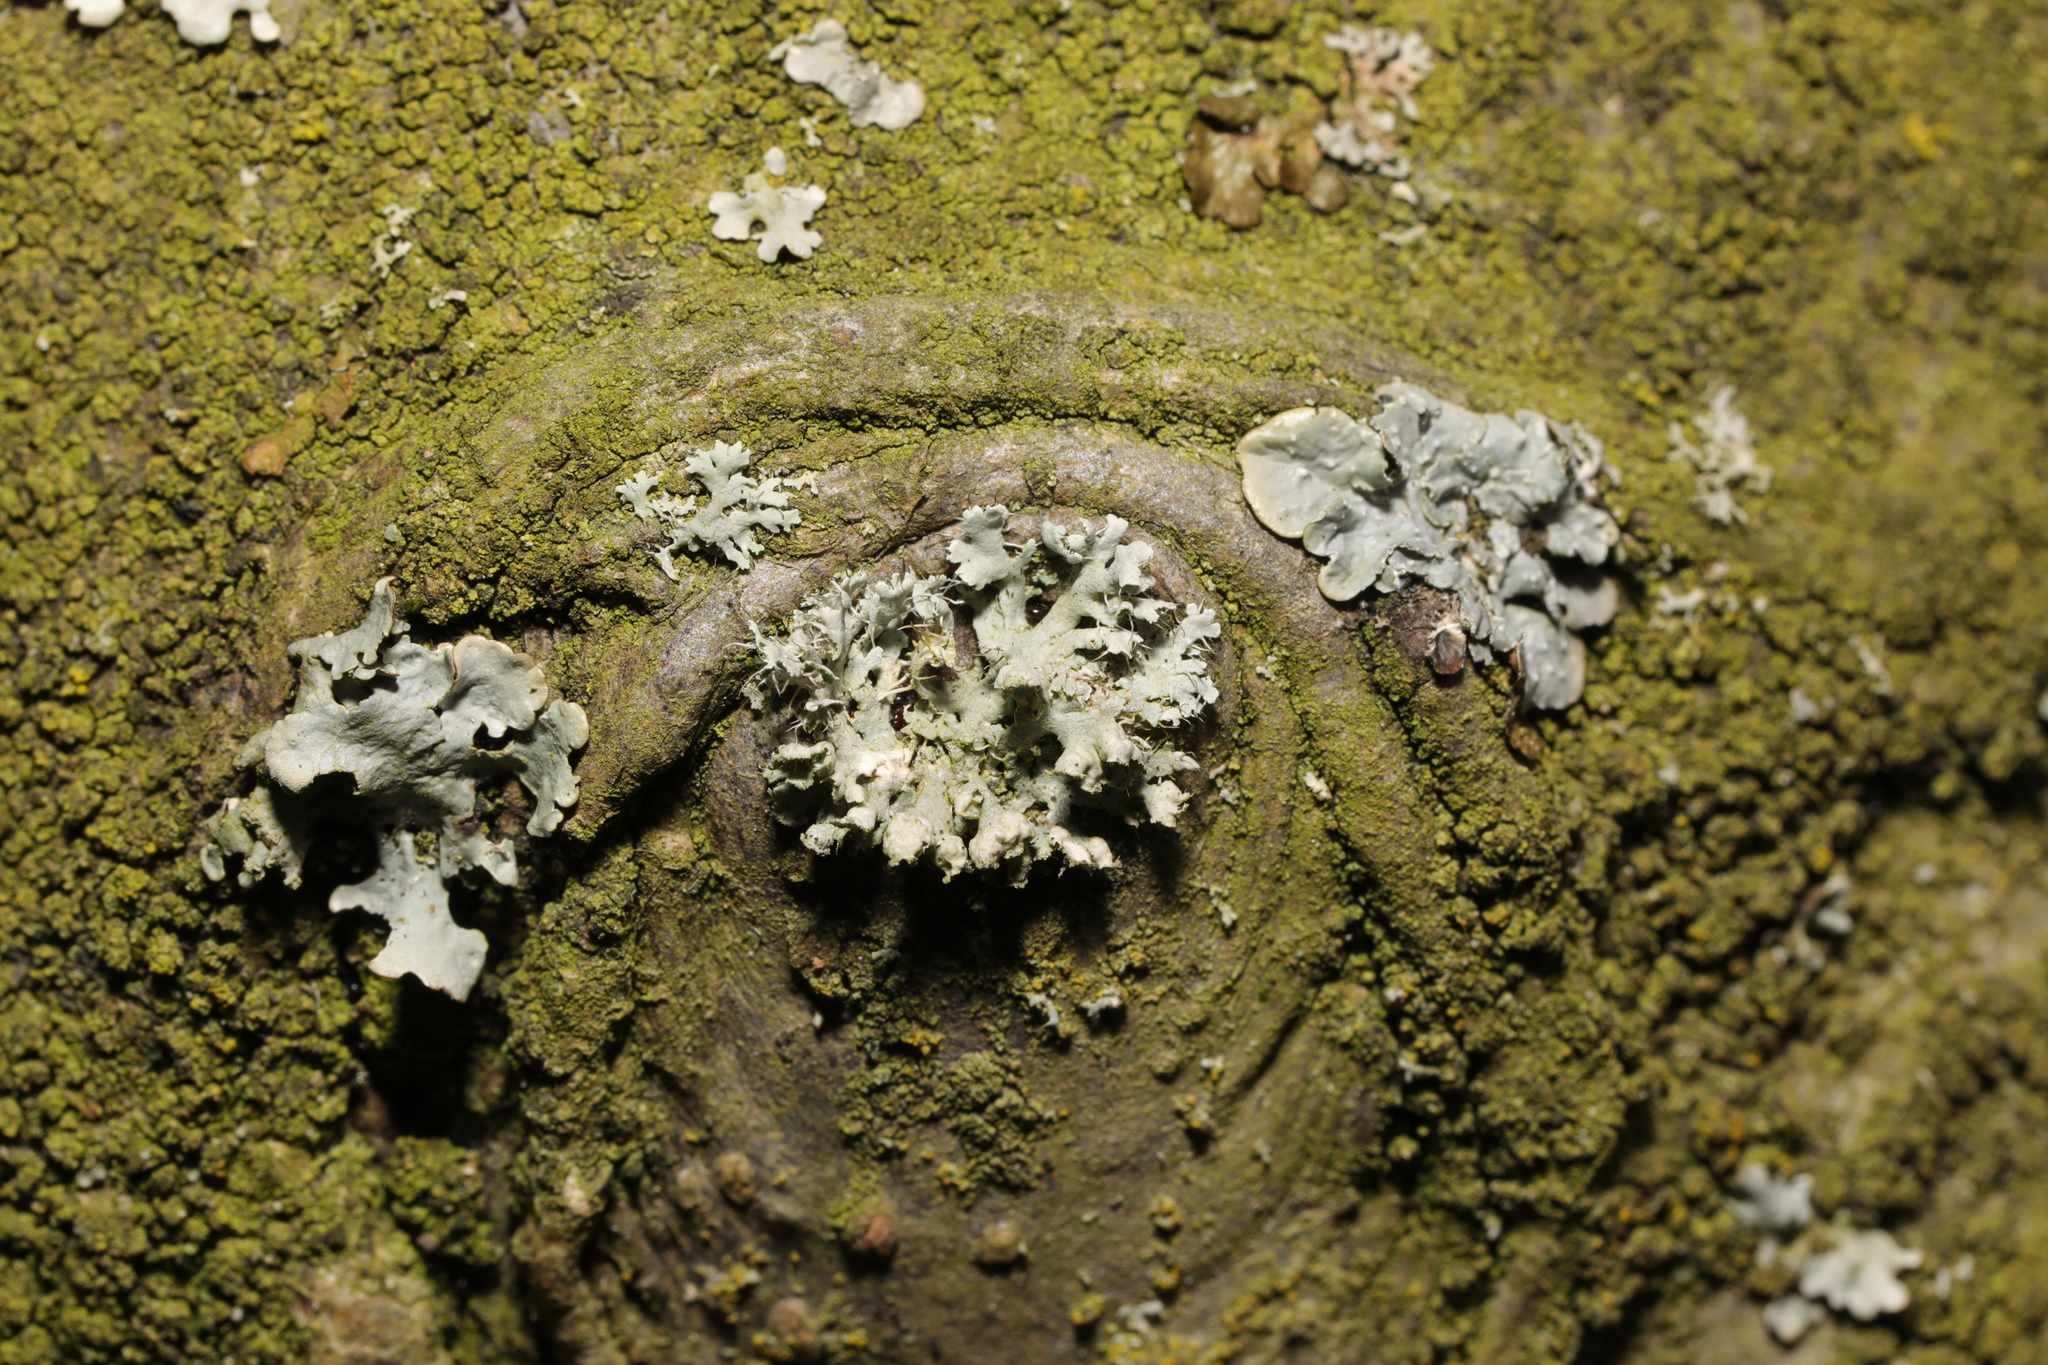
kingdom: Fungi
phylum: Ascomycota
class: Lecanoromycetes
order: Caliciales
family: Physciaceae
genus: Physcia
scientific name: Physcia adscendens
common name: Hooded rosette lichen
